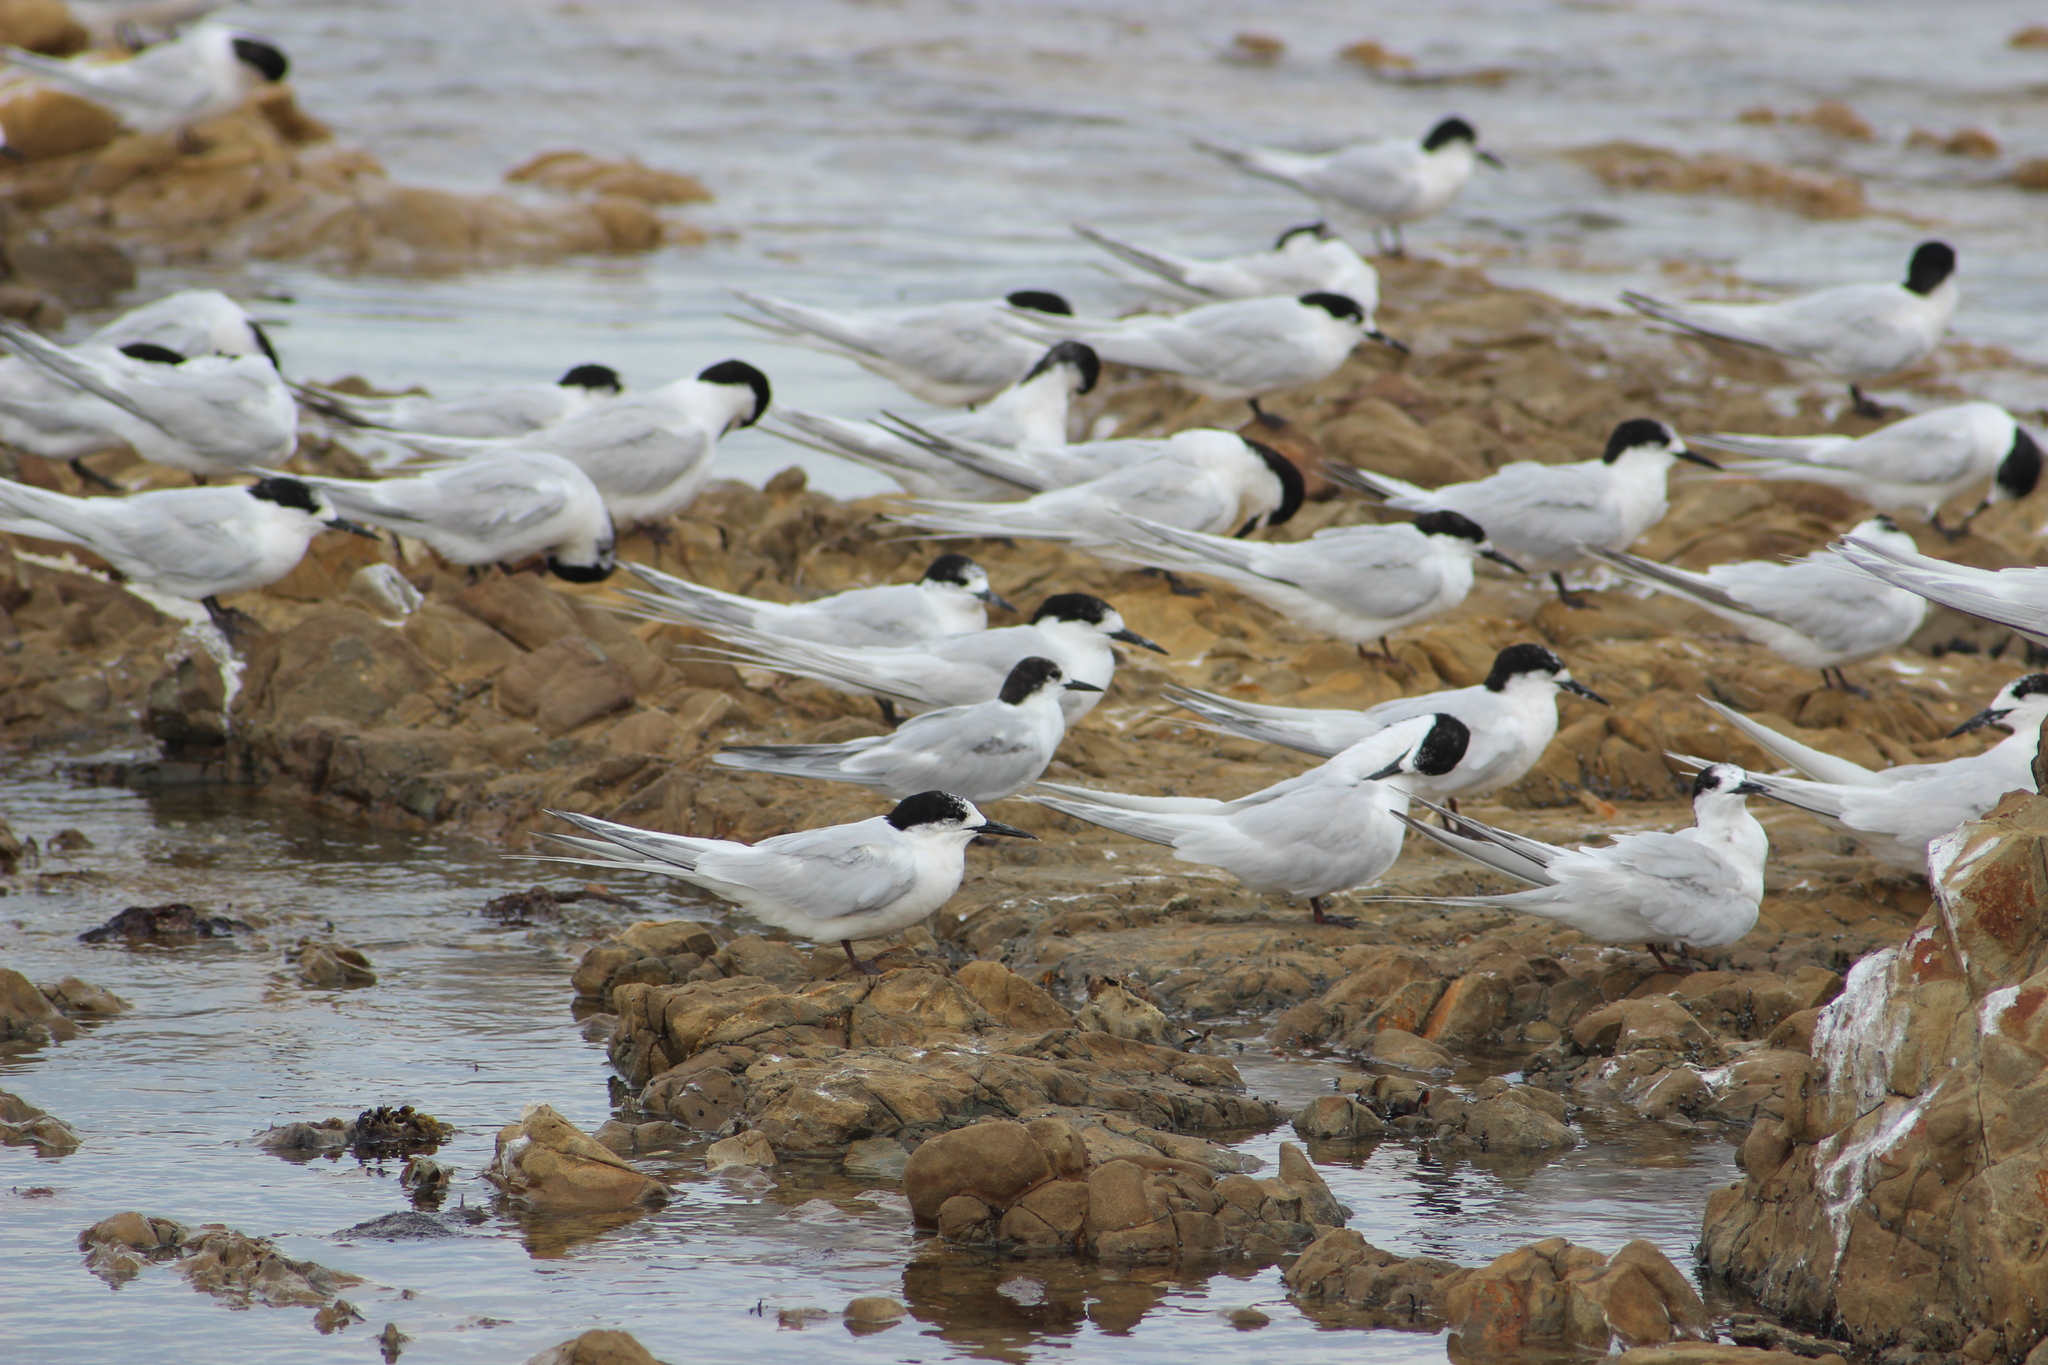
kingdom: Animalia
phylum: Chordata
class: Aves
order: Charadriiformes
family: Laridae
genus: Sterna
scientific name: Sterna hirundo
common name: Common tern
